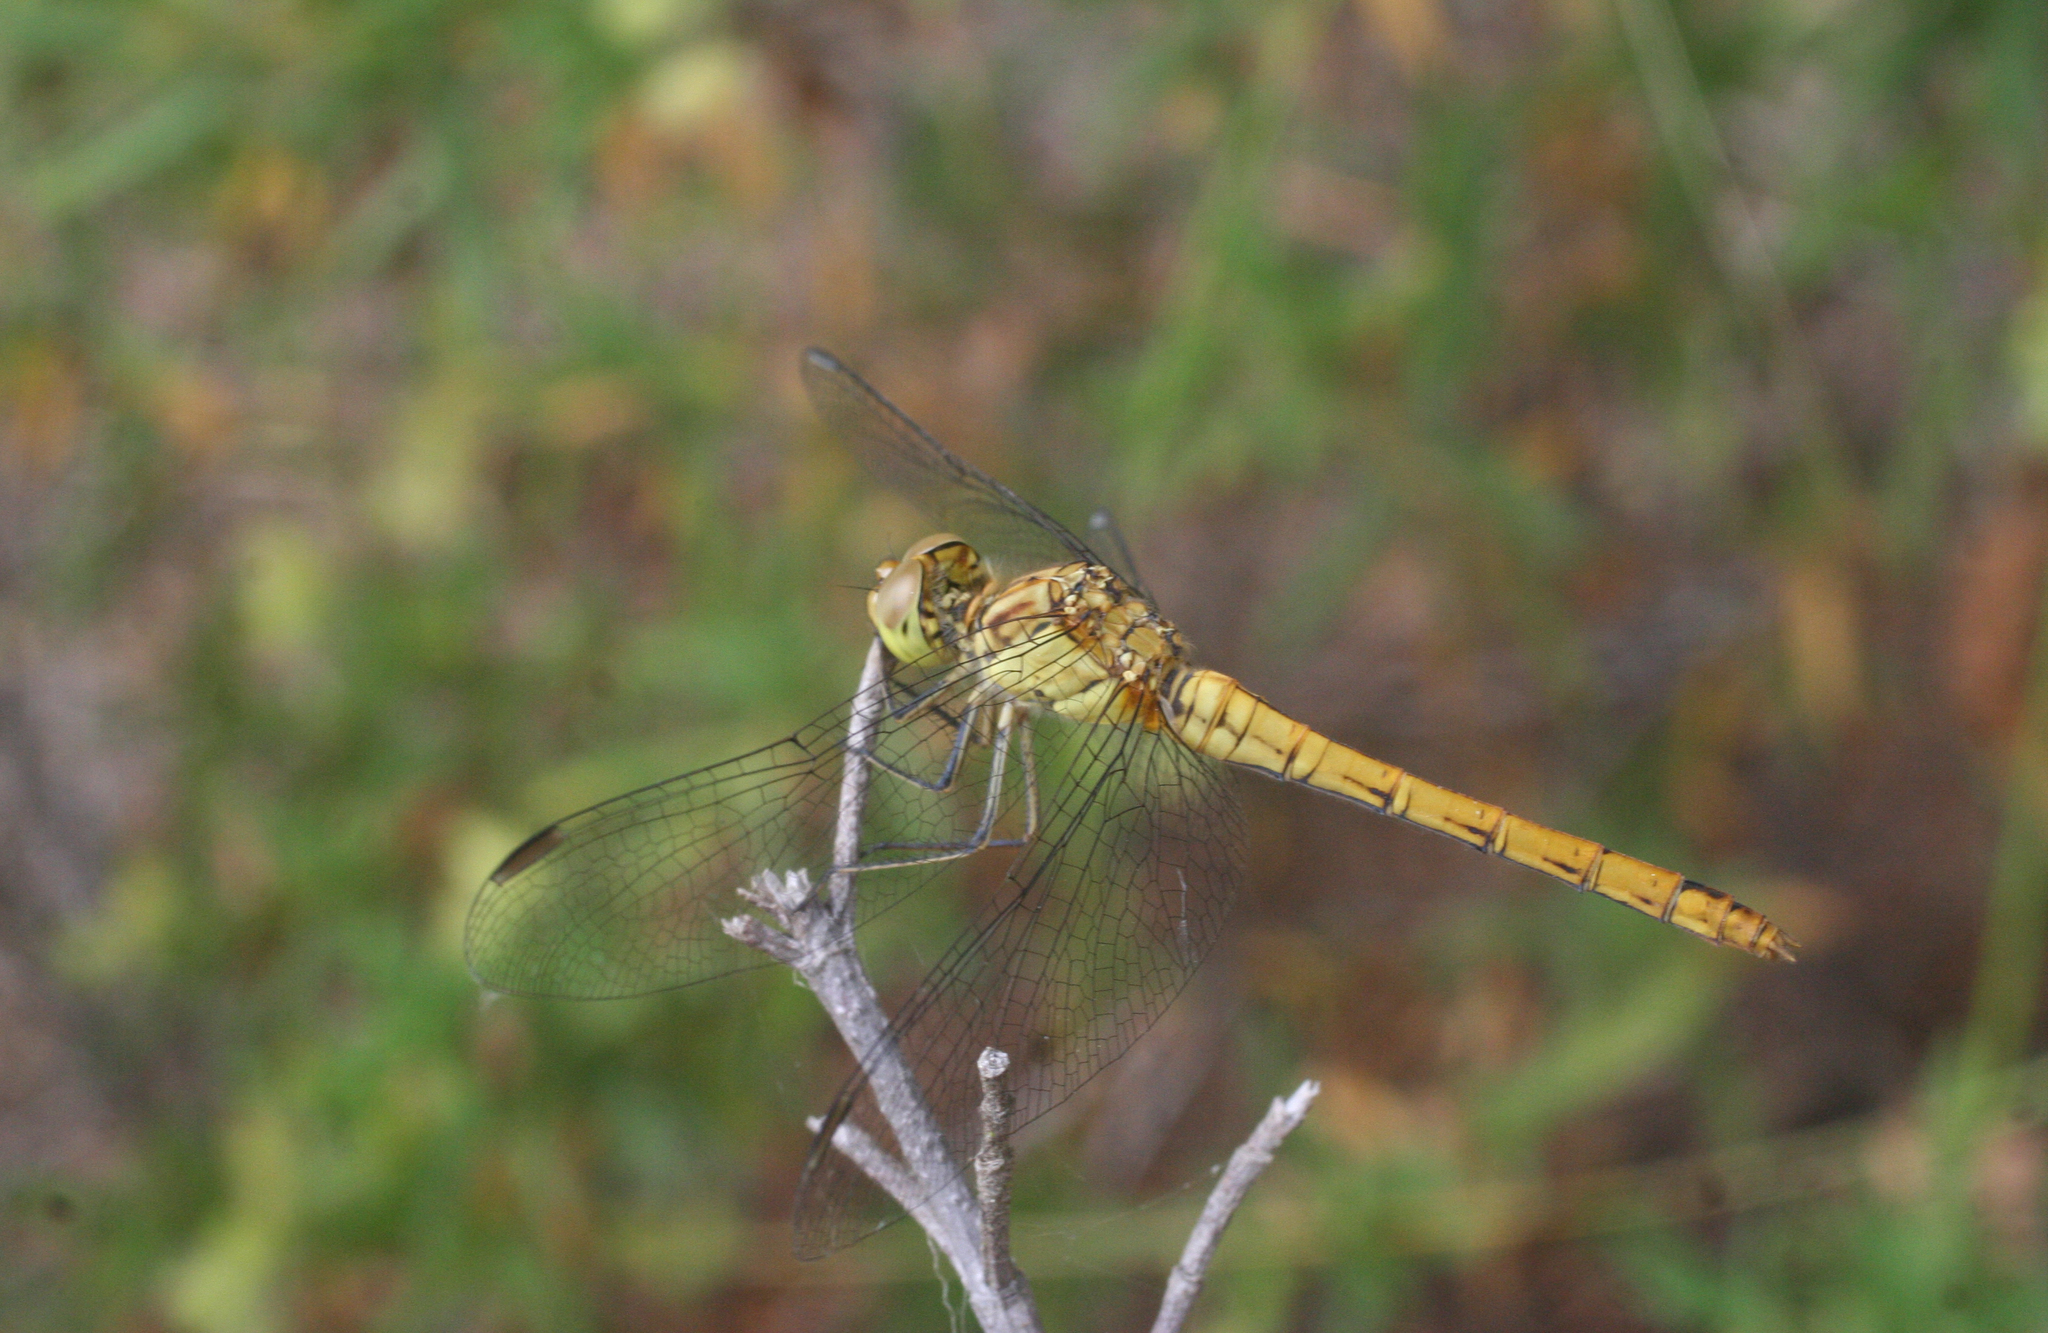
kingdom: Animalia
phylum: Arthropoda
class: Insecta
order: Odonata
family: Libellulidae
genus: Sympetrum
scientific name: Sympetrum striolatum
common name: Common darter
